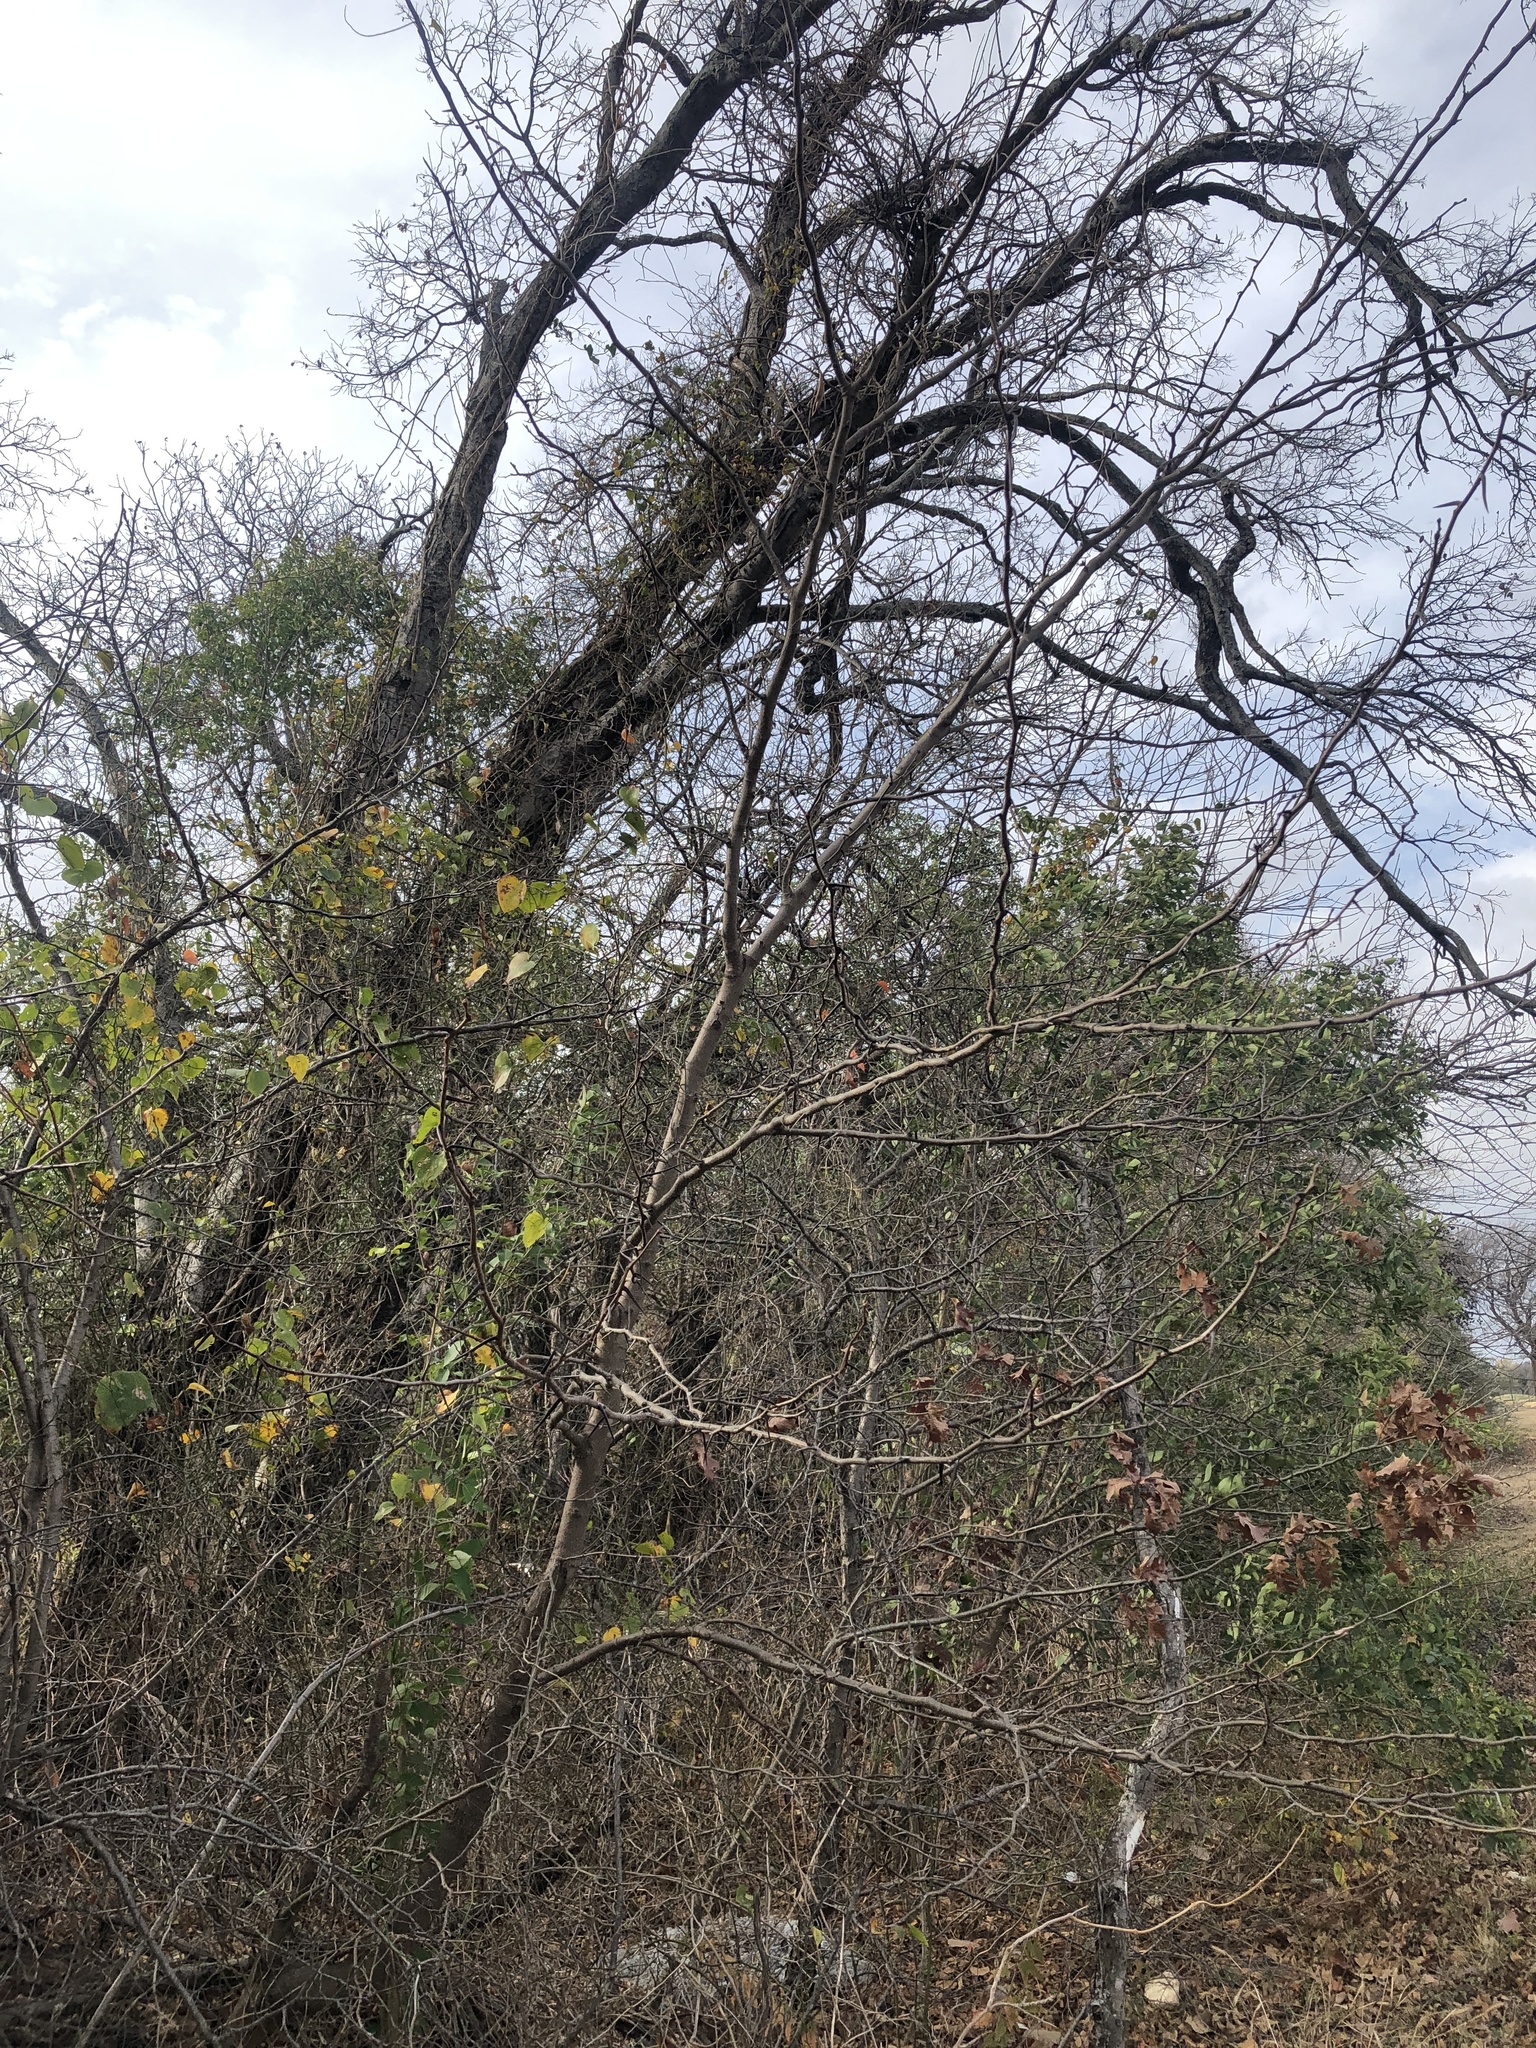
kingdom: Plantae
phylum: Tracheophyta
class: Magnoliopsida
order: Fabales
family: Fabaceae
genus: Gleditsia
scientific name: Gleditsia triacanthos
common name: Common honeylocust
